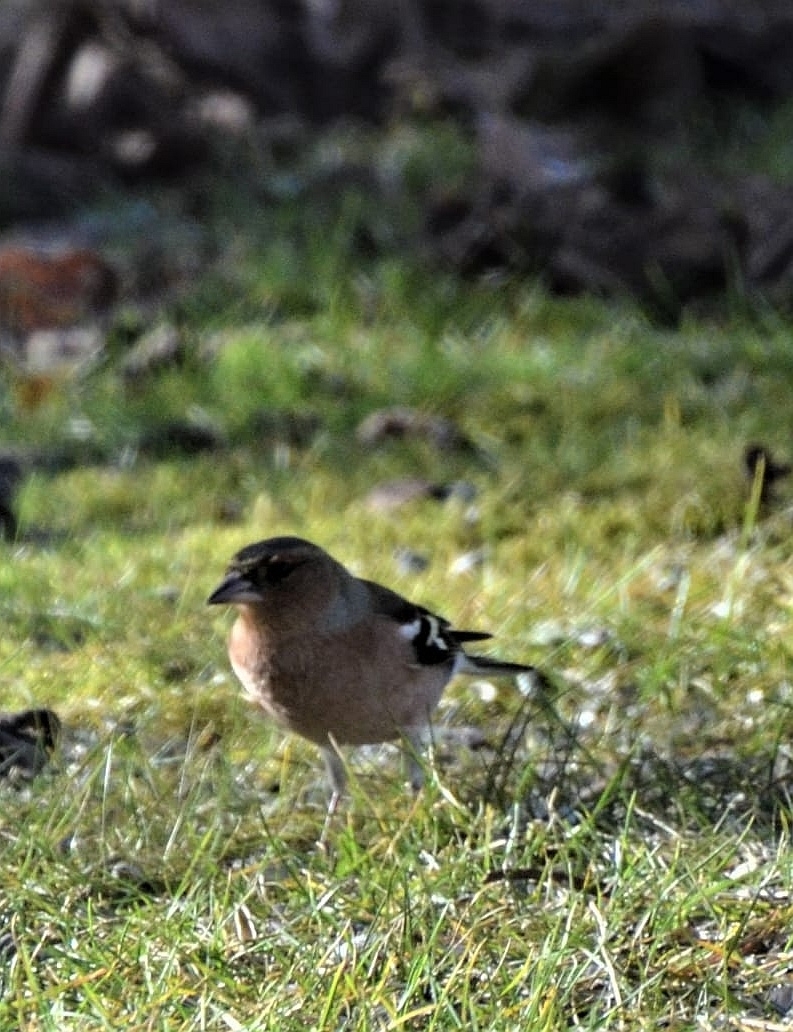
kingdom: Animalia
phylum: Chordata
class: Aves
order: Passeriformes
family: Fringillidae
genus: Fringilla
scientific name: Fringilla coelebs
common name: Common chaffinch
